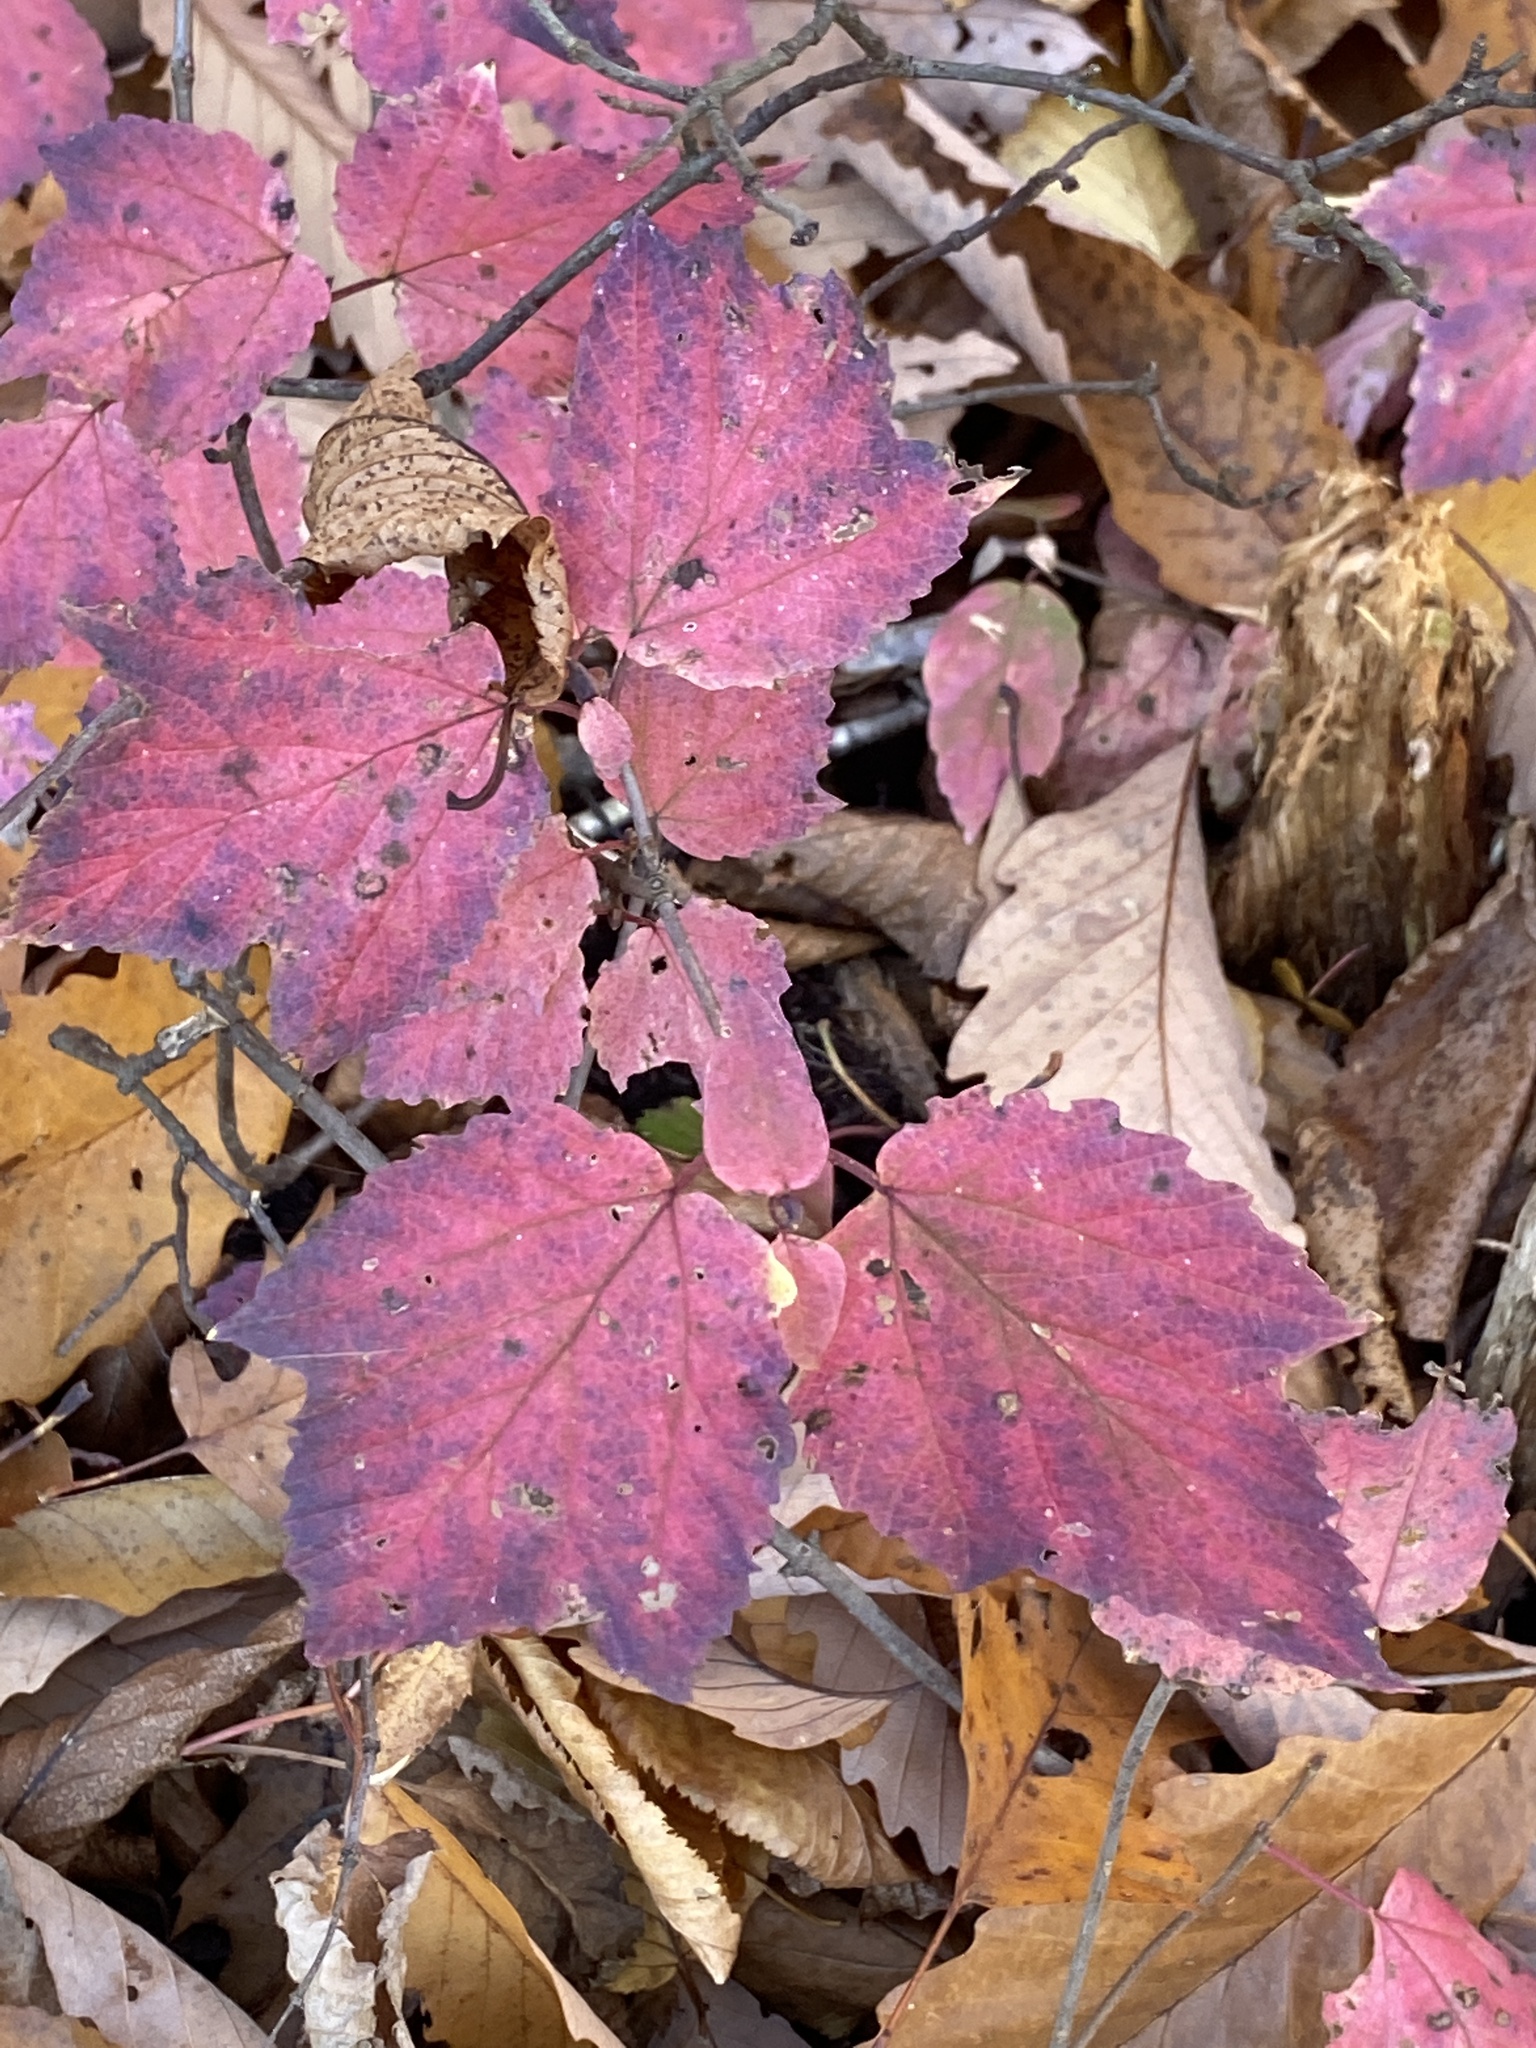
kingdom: Plantae
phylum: Tracheophyta
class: Magnoliopsida
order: Dipsacales
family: Viburnaceae
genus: Viburnum
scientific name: Viburnum acerifolium
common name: Dockmackie
